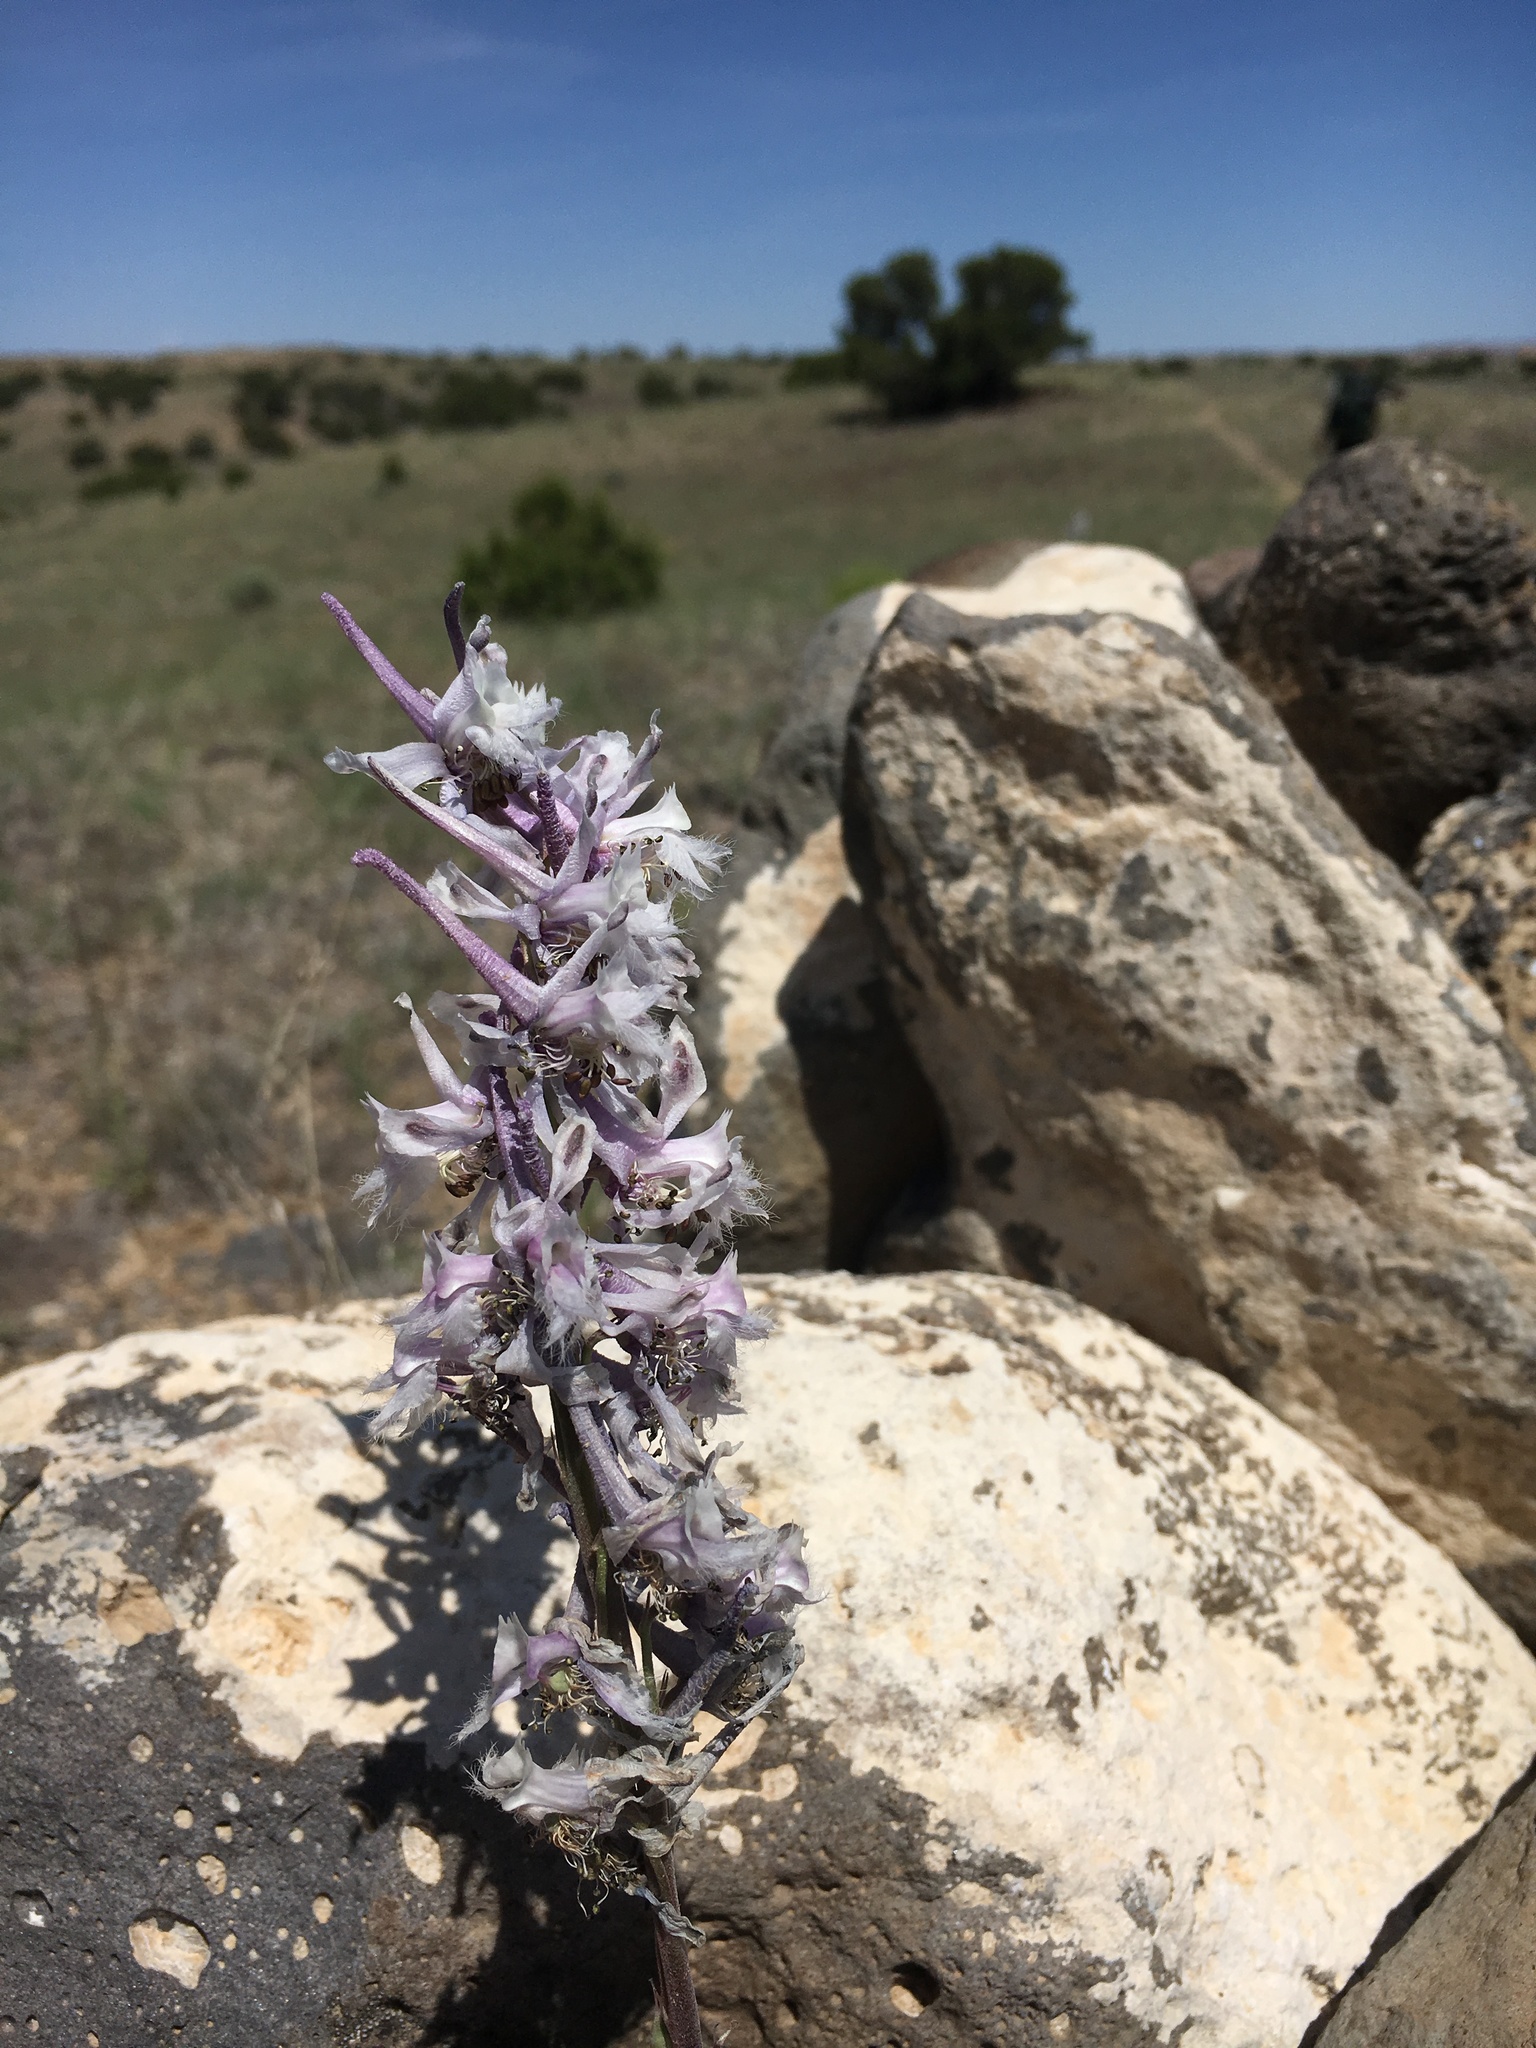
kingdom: Plantae
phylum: Tracheophyta
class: Magnoliopsida
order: Ranunculales
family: Ranunculaceae
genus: Delphinium
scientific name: Delphinium wootonii
